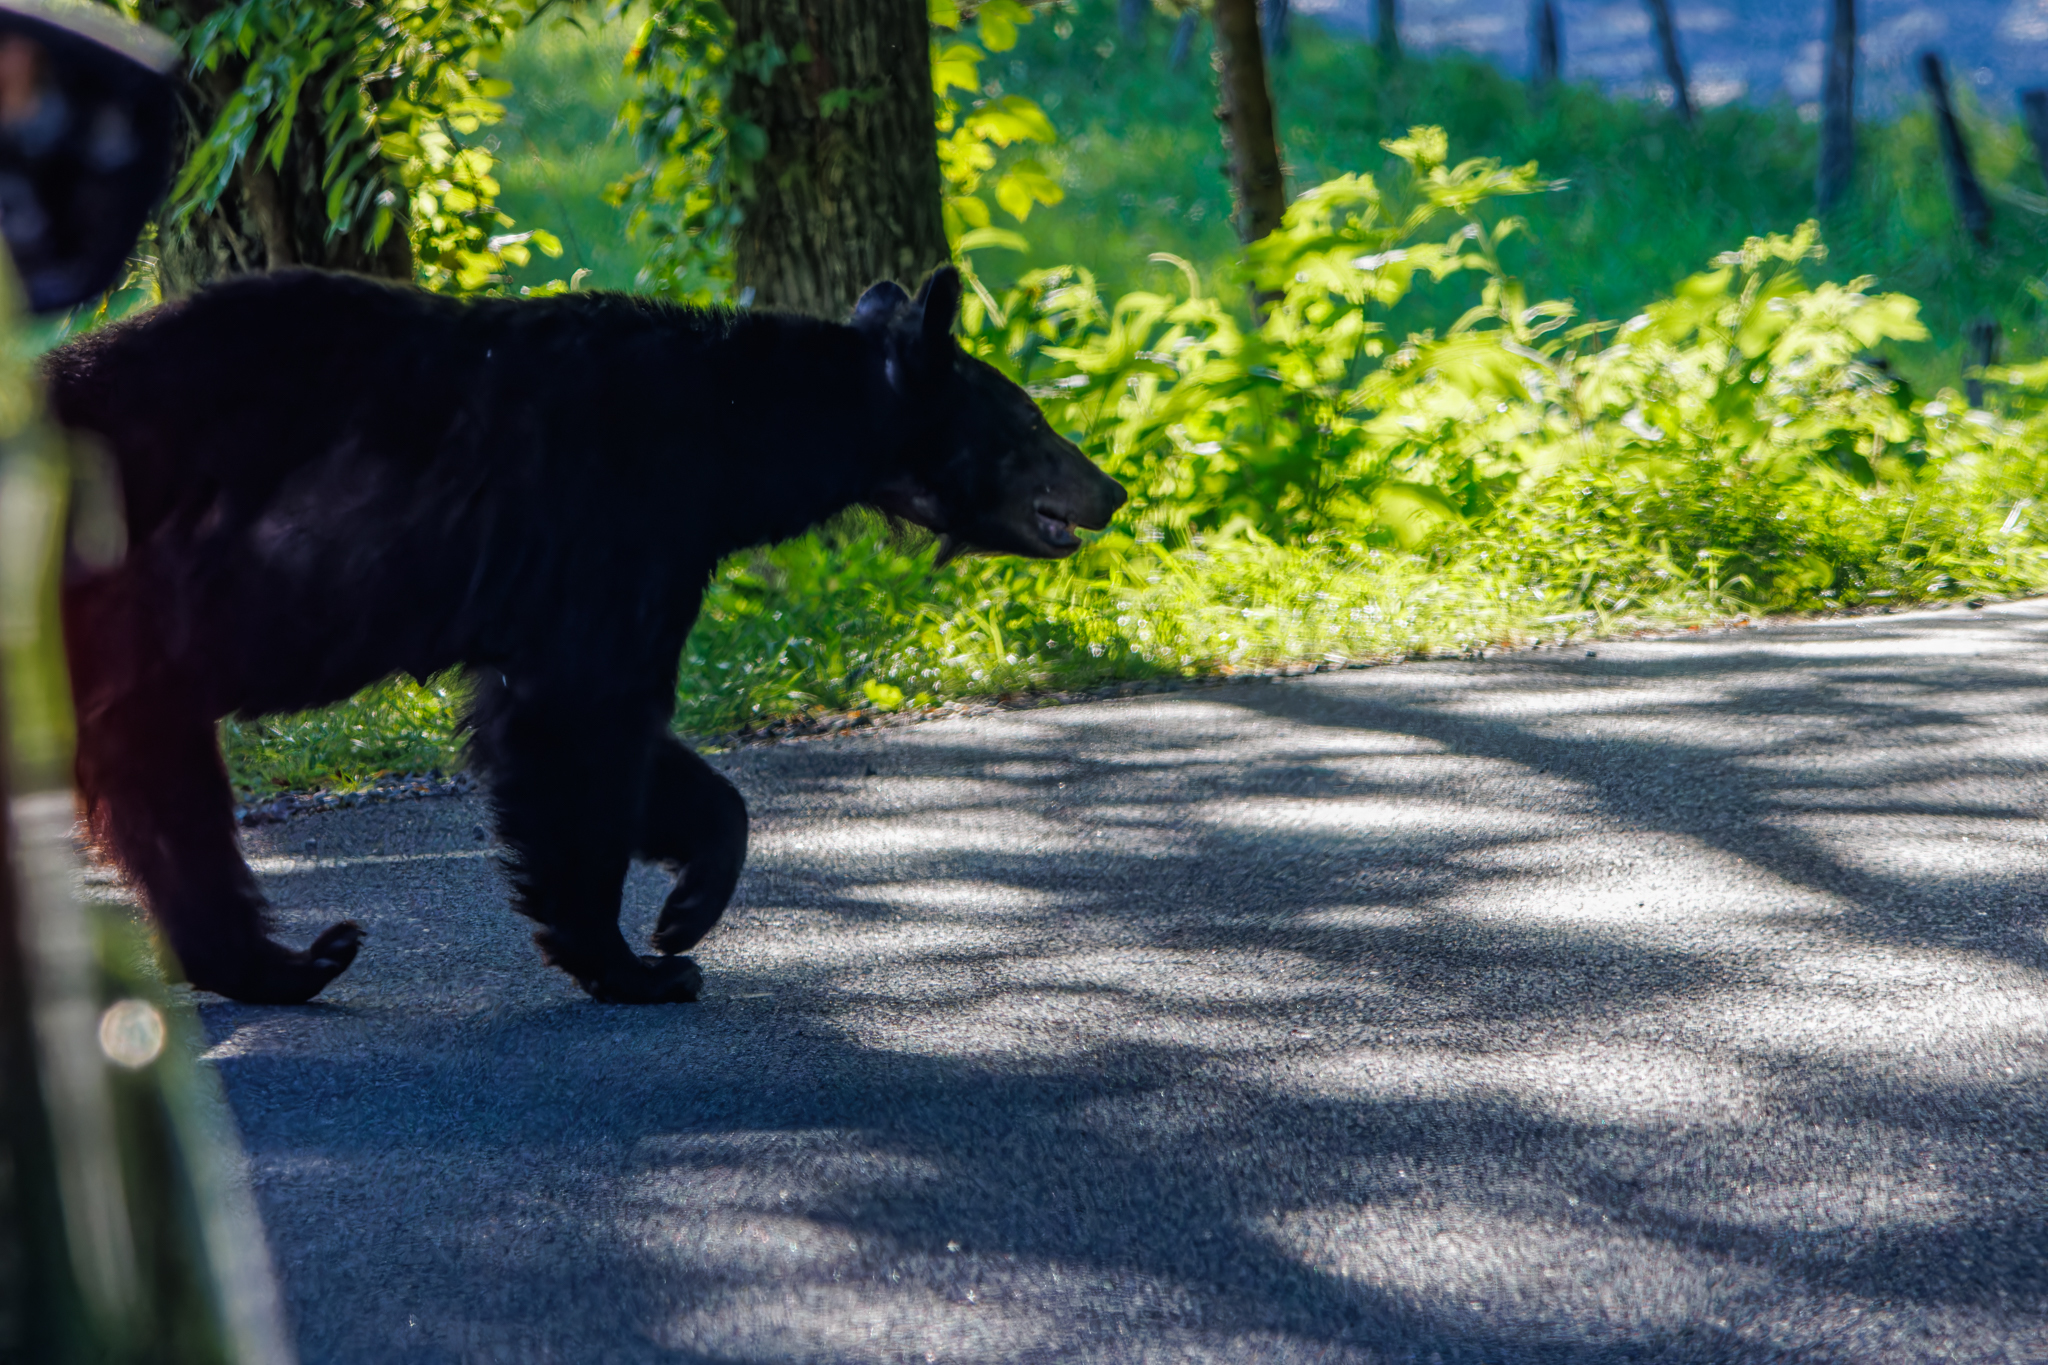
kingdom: Animalia
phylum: Chordata
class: Mammalia
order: Carnivora
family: Ursidae
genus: Ursus
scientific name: Ursus americanus
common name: American black bear
